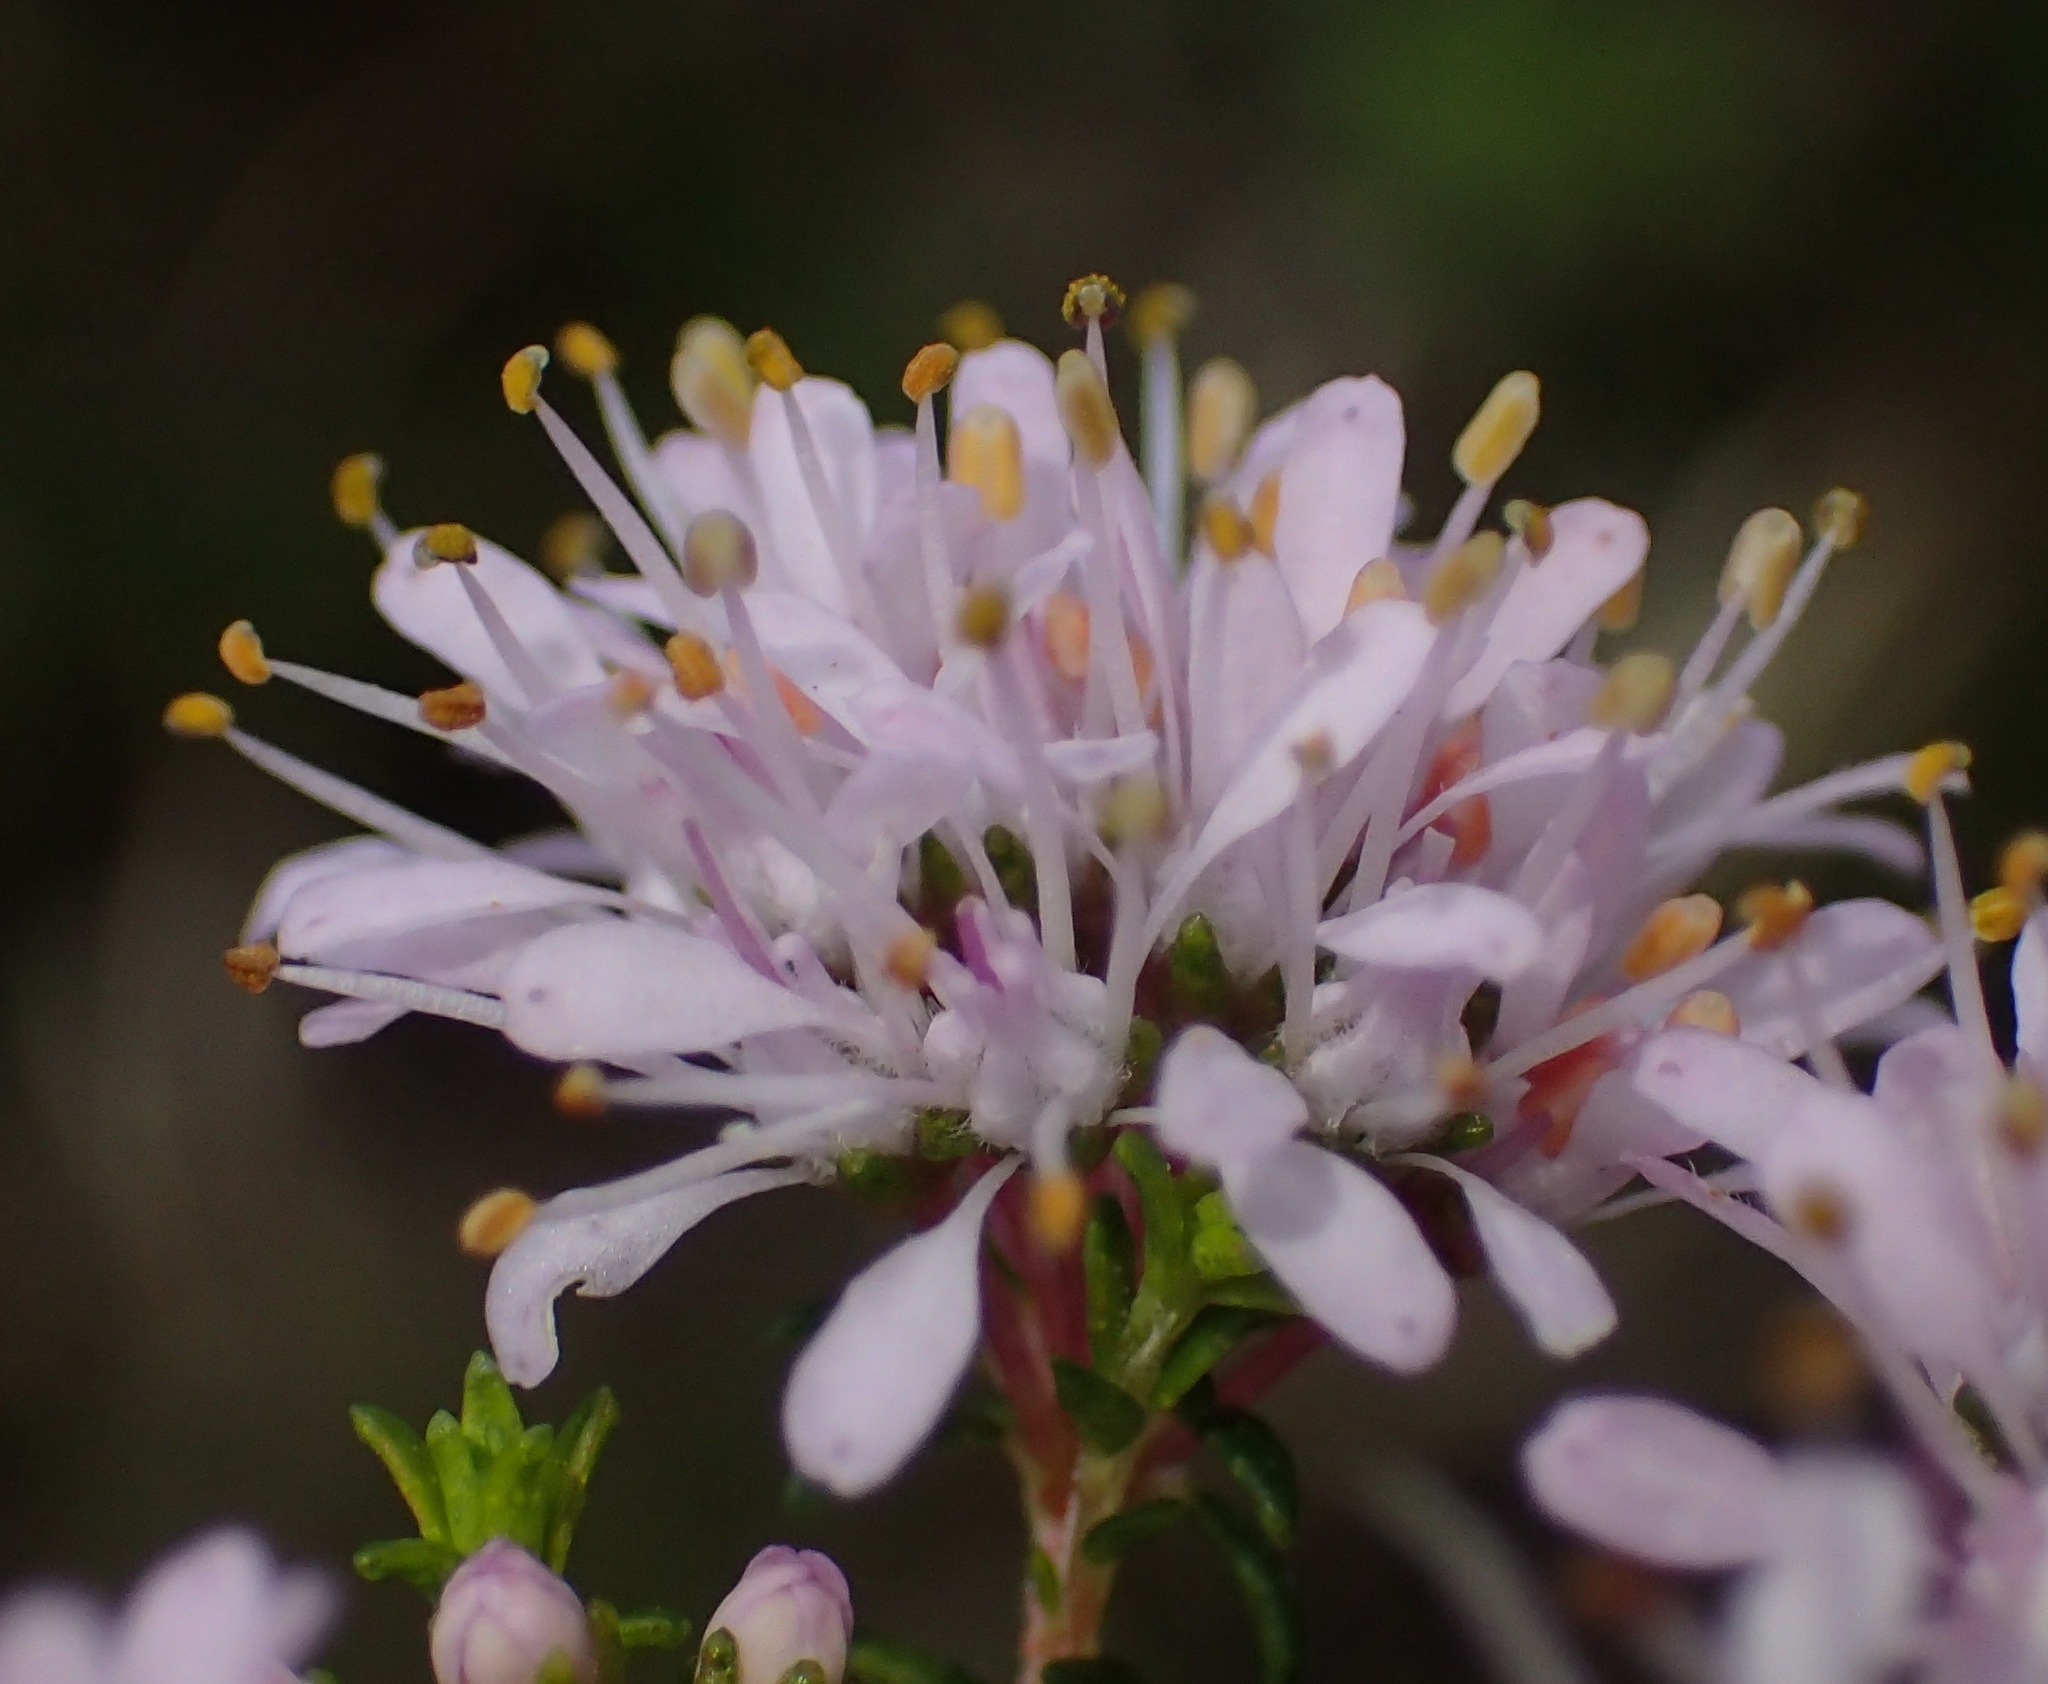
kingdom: Plantae
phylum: Tracheophyta
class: Magnoliopsida
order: Sapindales
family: Rutaceae
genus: Agathosma
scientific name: Agathosma capensis
